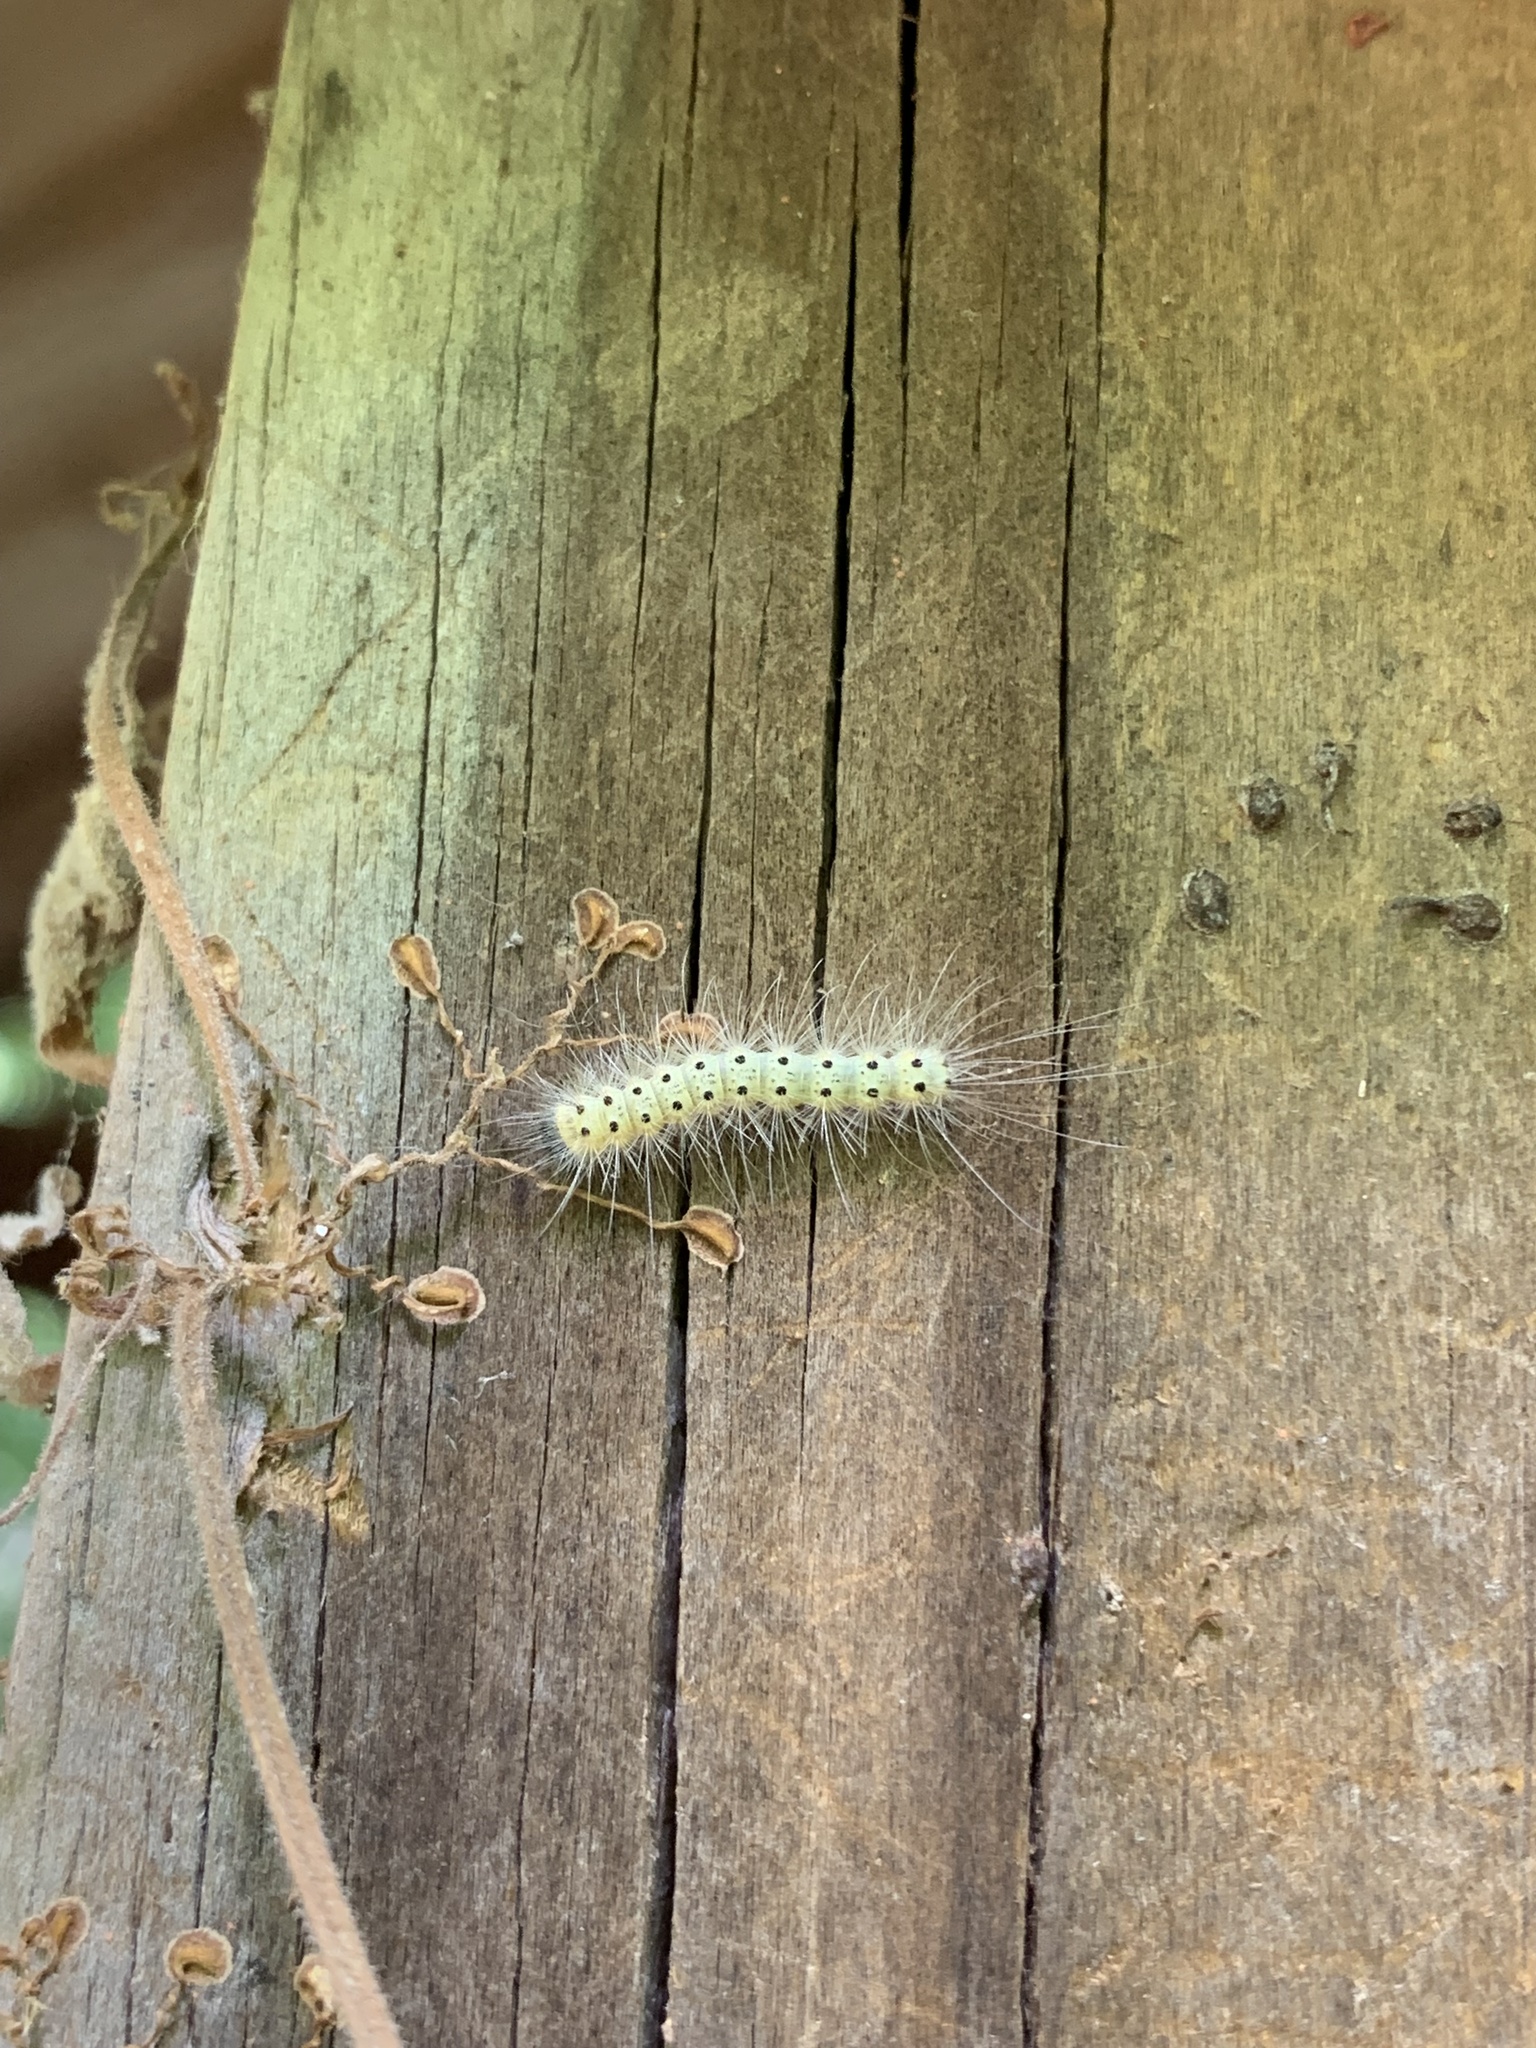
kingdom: Animalia
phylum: Arthropoda
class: Insecta
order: Lepidoptera
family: Erebidae
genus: Hyphantria
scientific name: Hyphantria cunea
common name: American white moth
